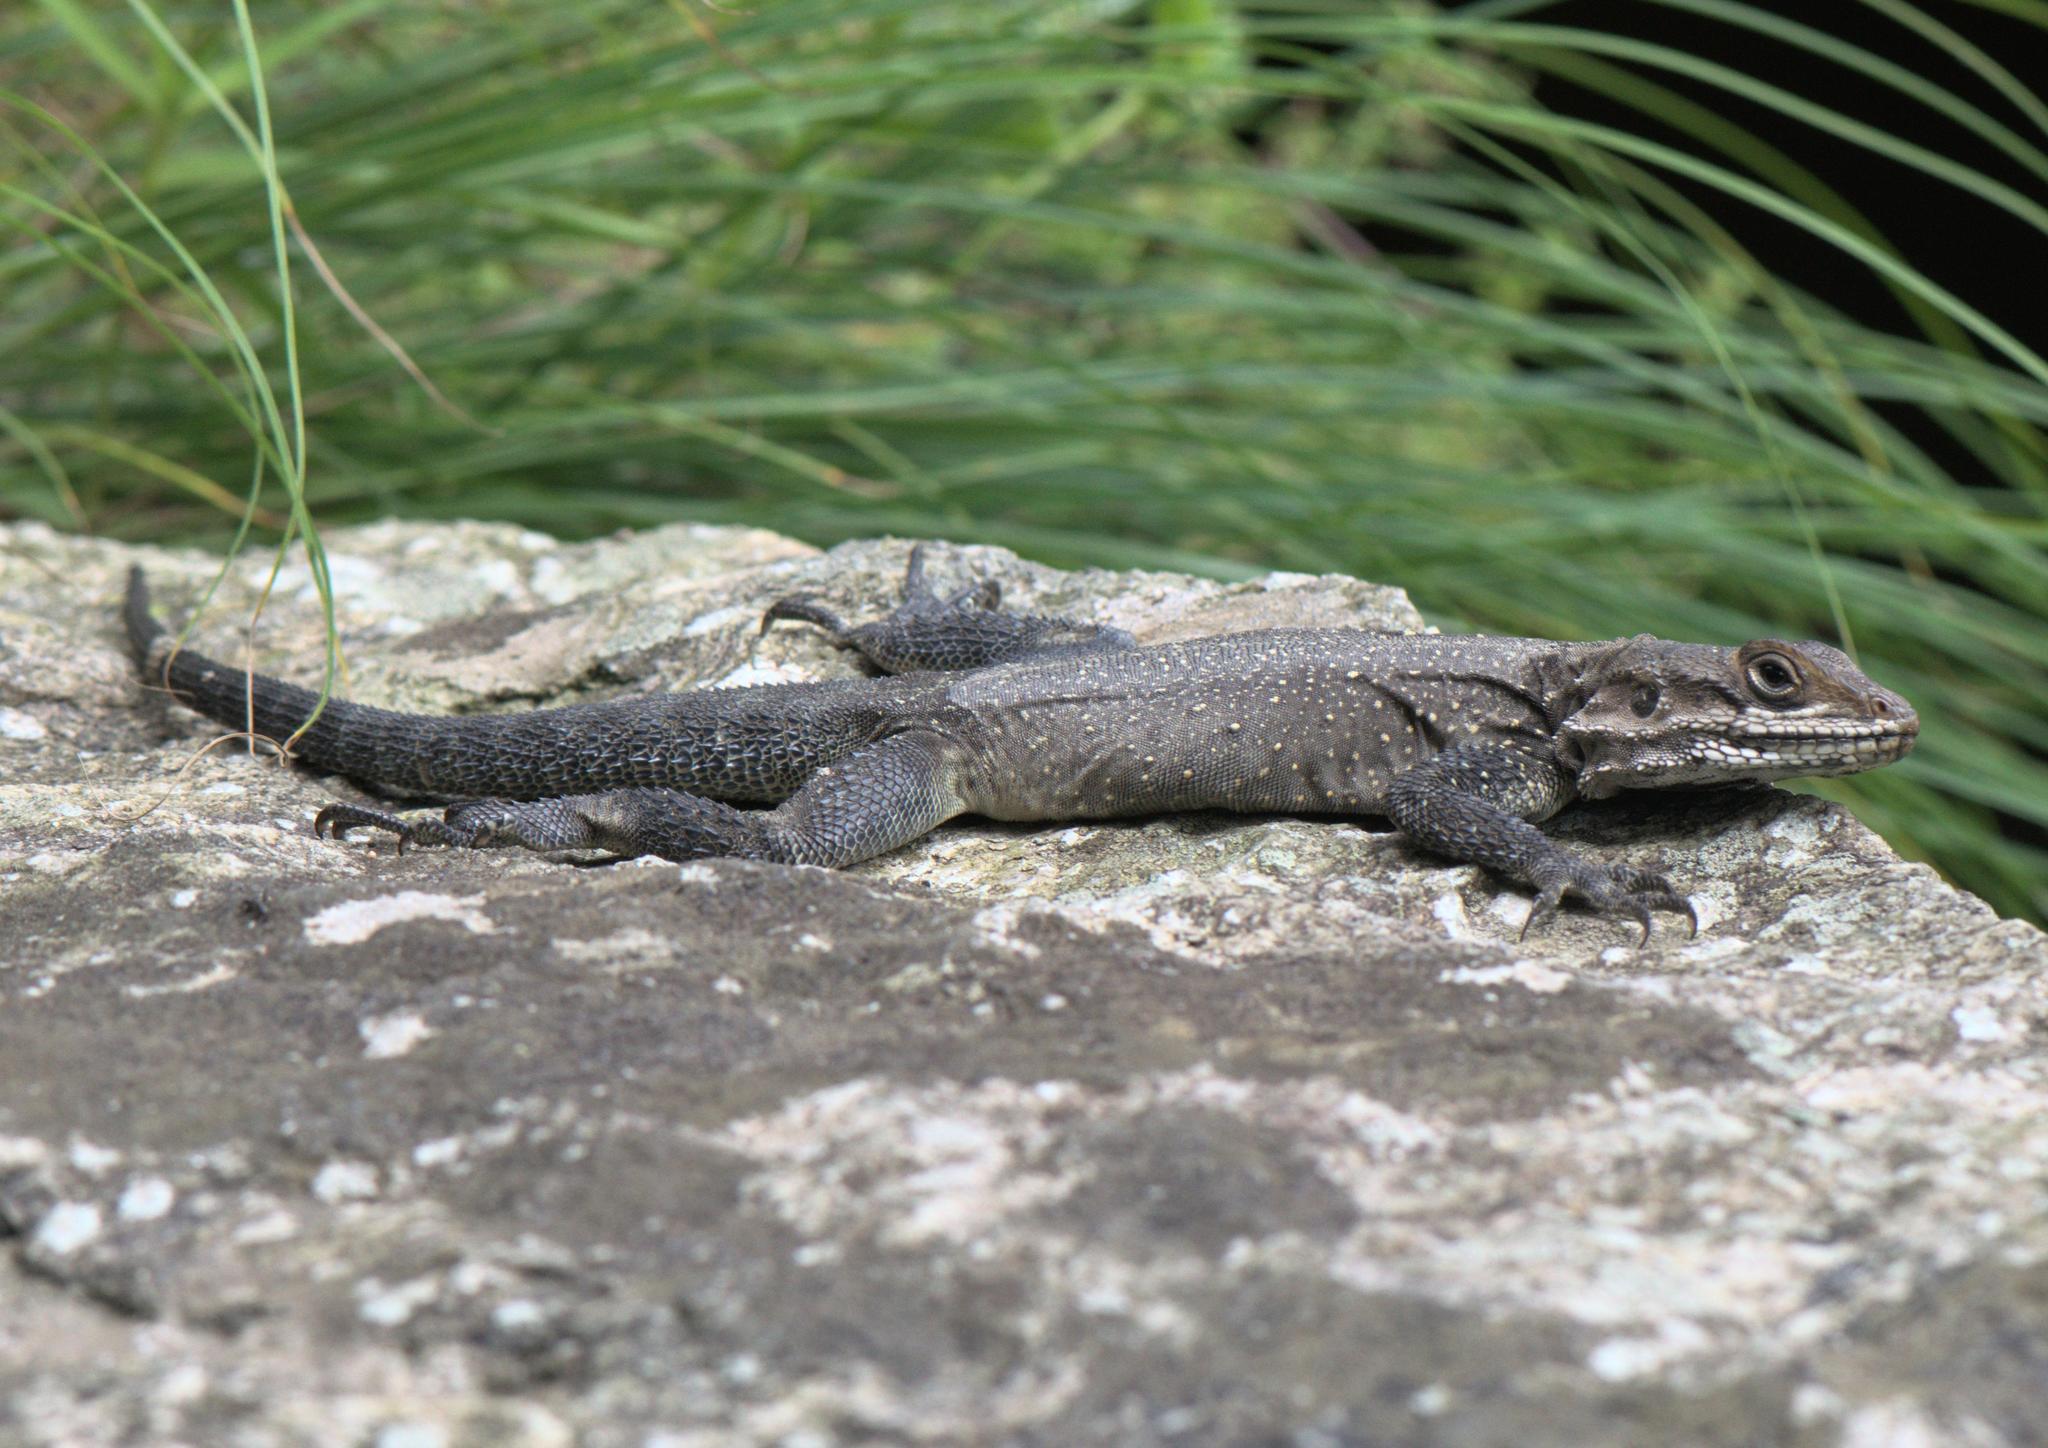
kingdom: Animalia
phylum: Chordata
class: Squamata
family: Agamidae
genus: Laudakia
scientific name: Laudakia tuberculata
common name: Kashmir rock agama
